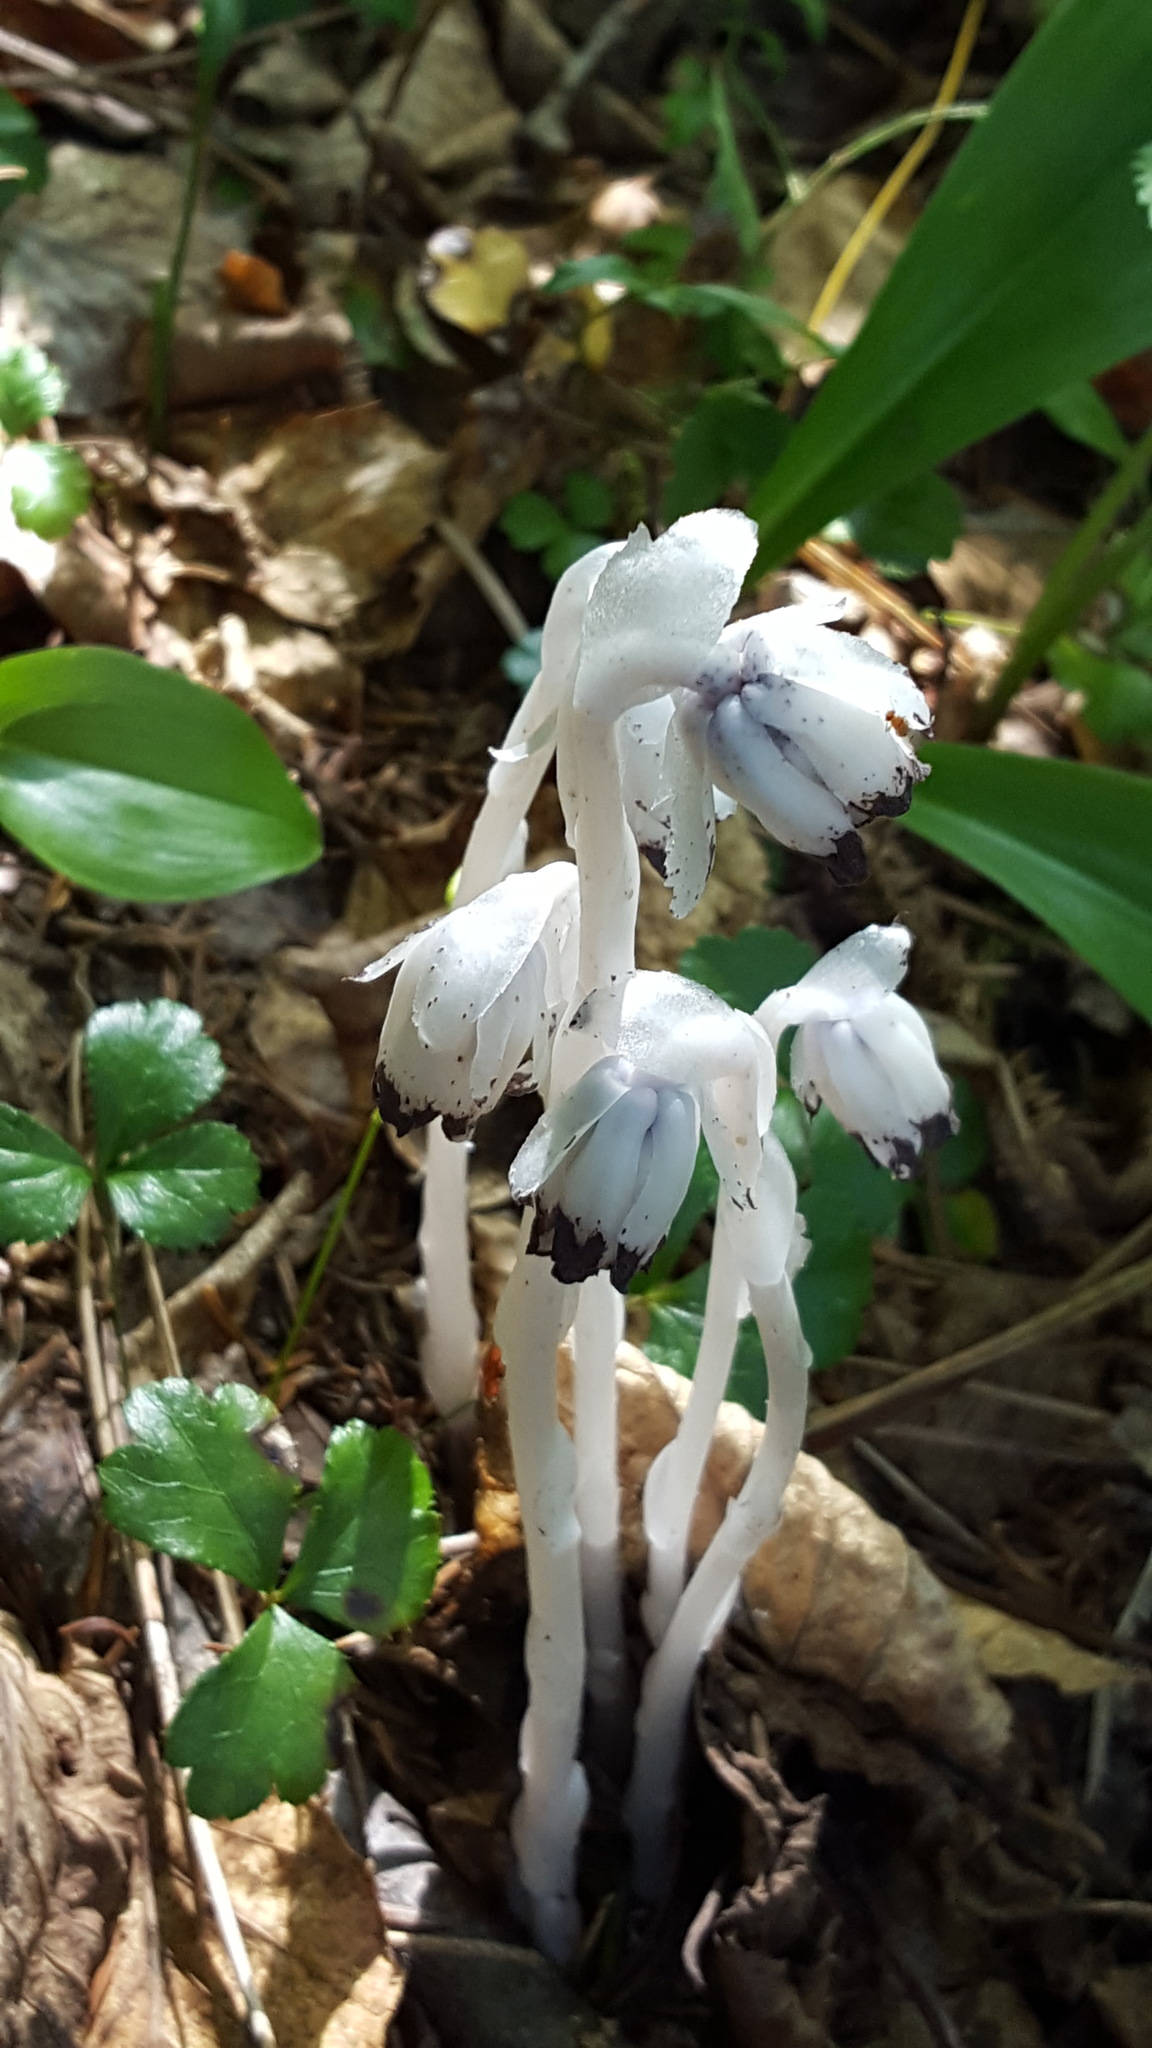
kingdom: Plantae
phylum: Tracheophyta
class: Magnoliopsida
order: Ericales
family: Ericaceae
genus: Monotropa
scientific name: Monotropa uniflora
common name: Convulsion root
